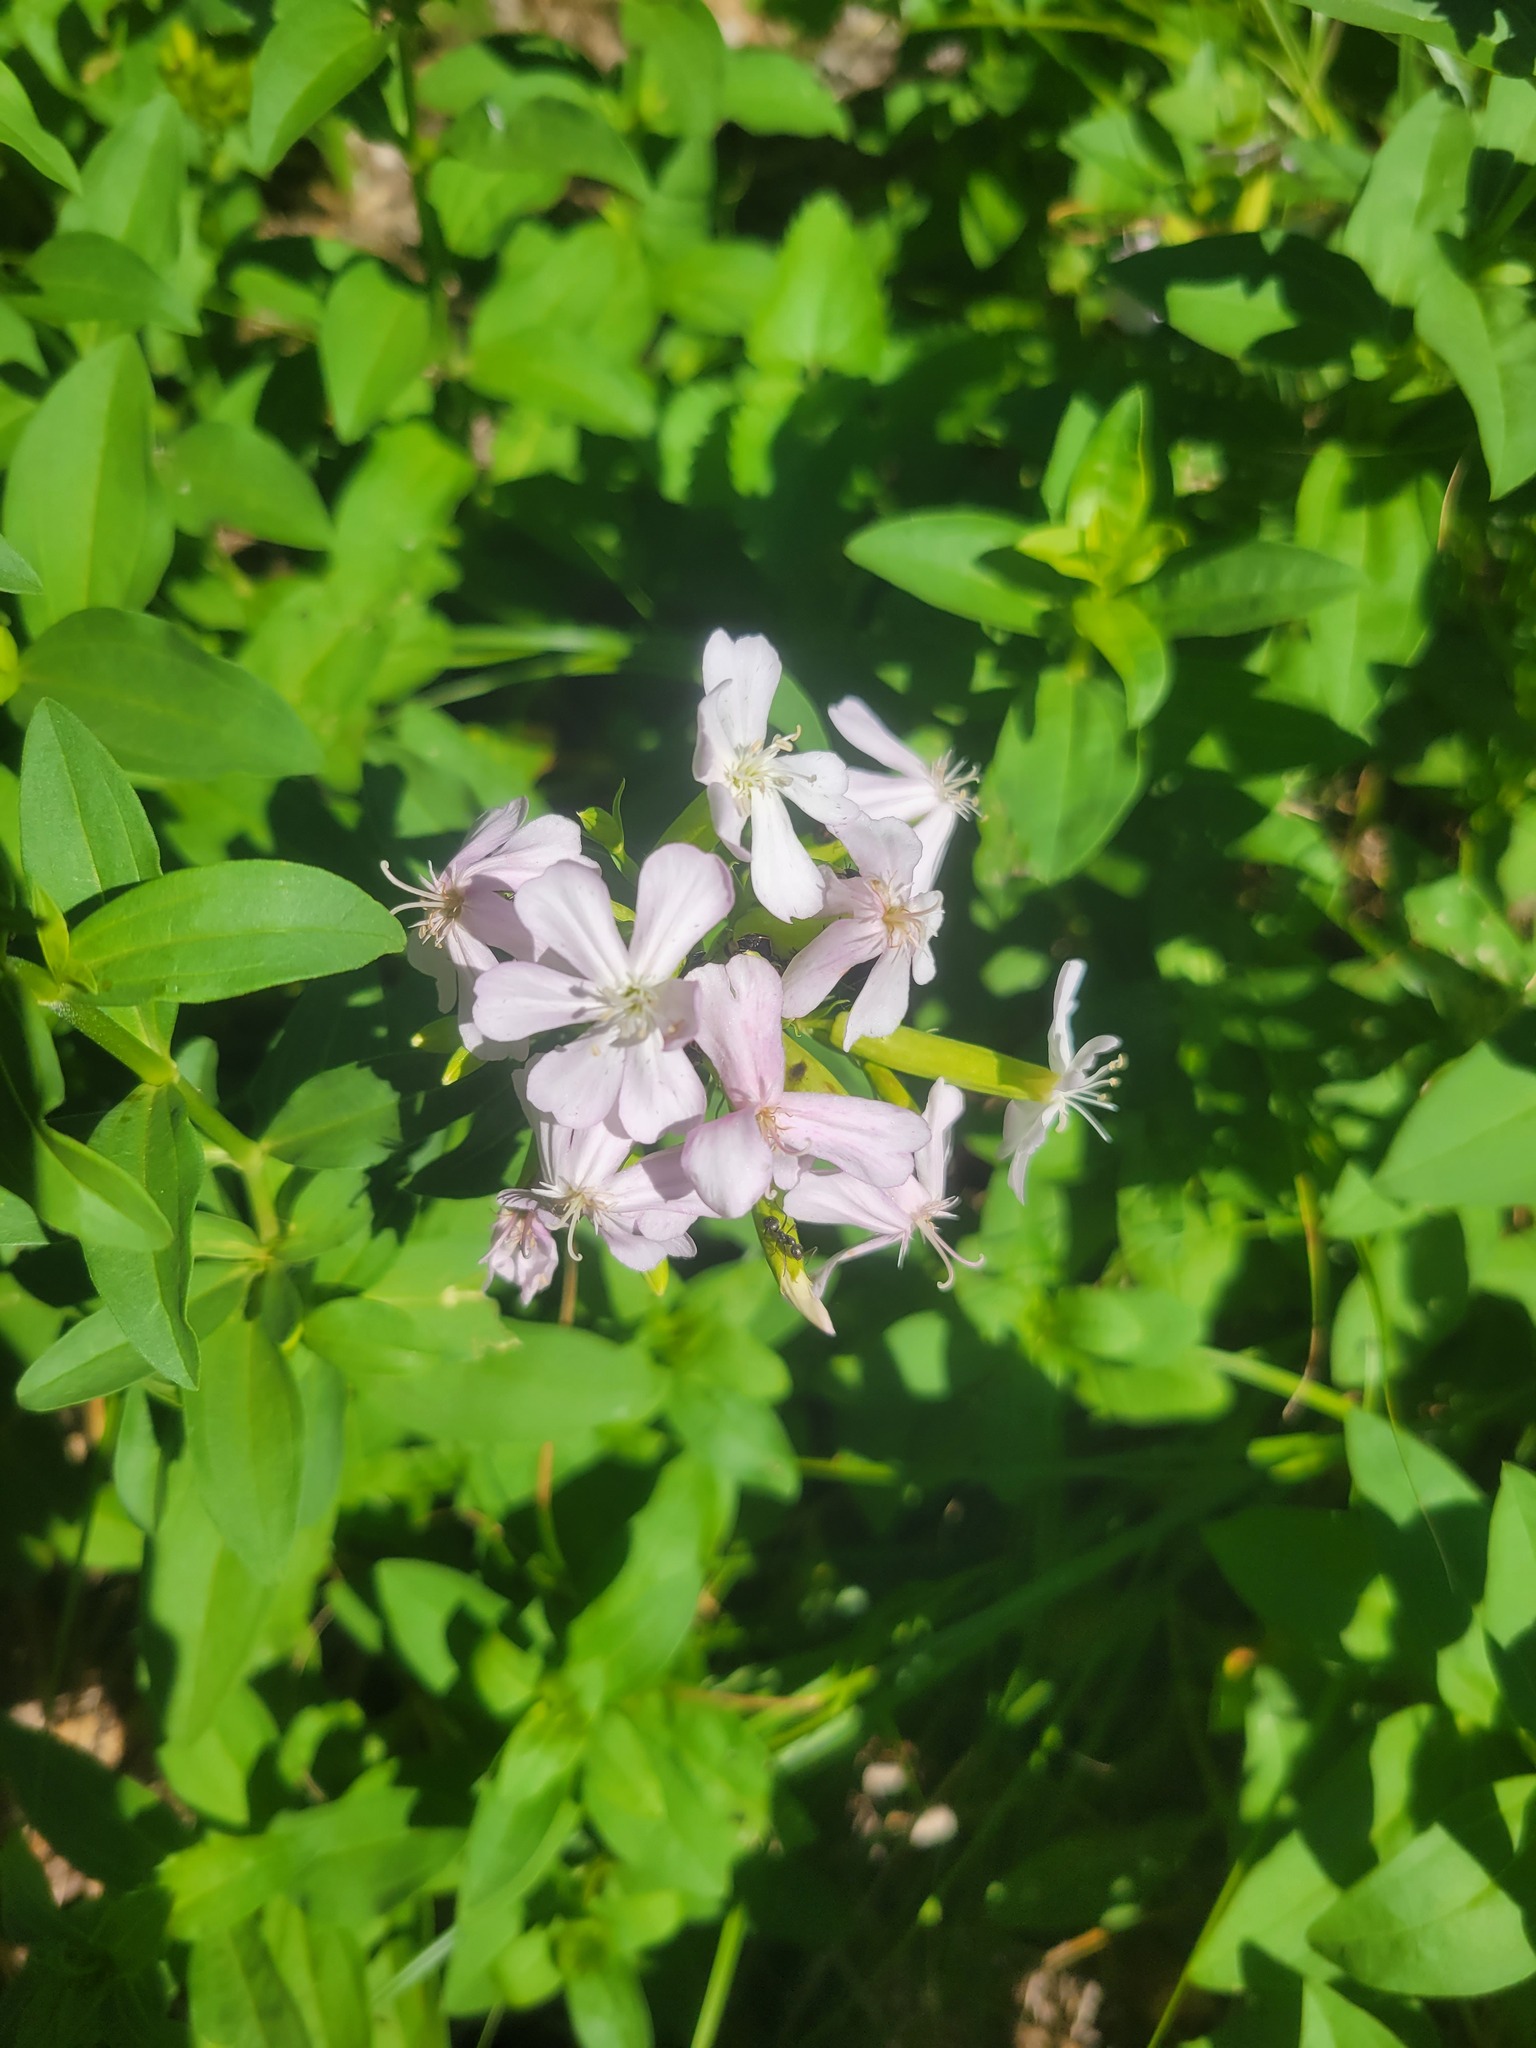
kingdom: Plantae
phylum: Tracheophyta
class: Magnoliopsida
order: Caryophyllales
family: Caryophyllaceae
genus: Saponaria
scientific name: Saponaria officinalis
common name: Soapwort
